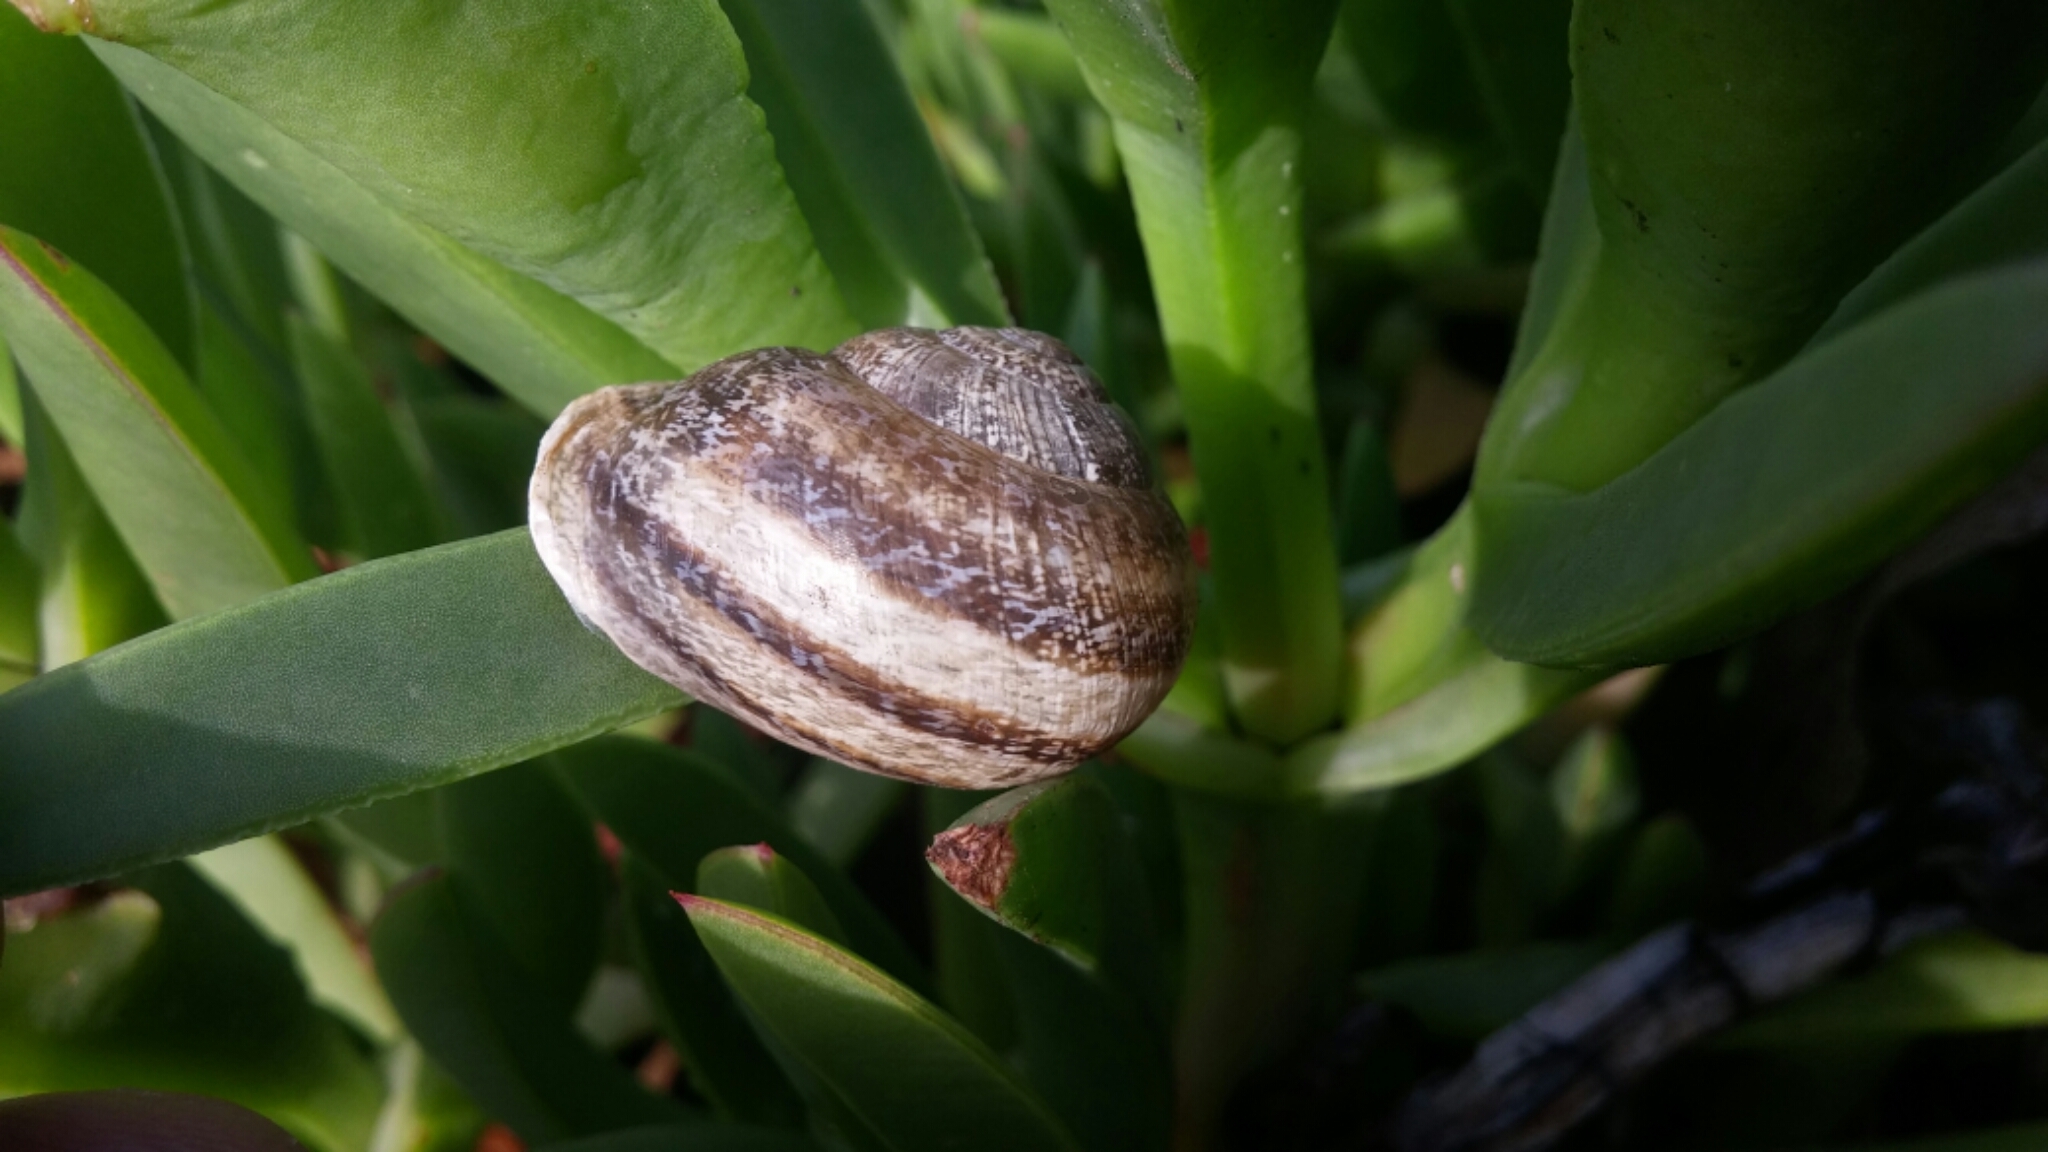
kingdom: Animalia
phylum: Mollusca
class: Gastropoda
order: Stylommatophora
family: Helicidae
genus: Otala
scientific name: Otala lactea
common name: Milk snail
